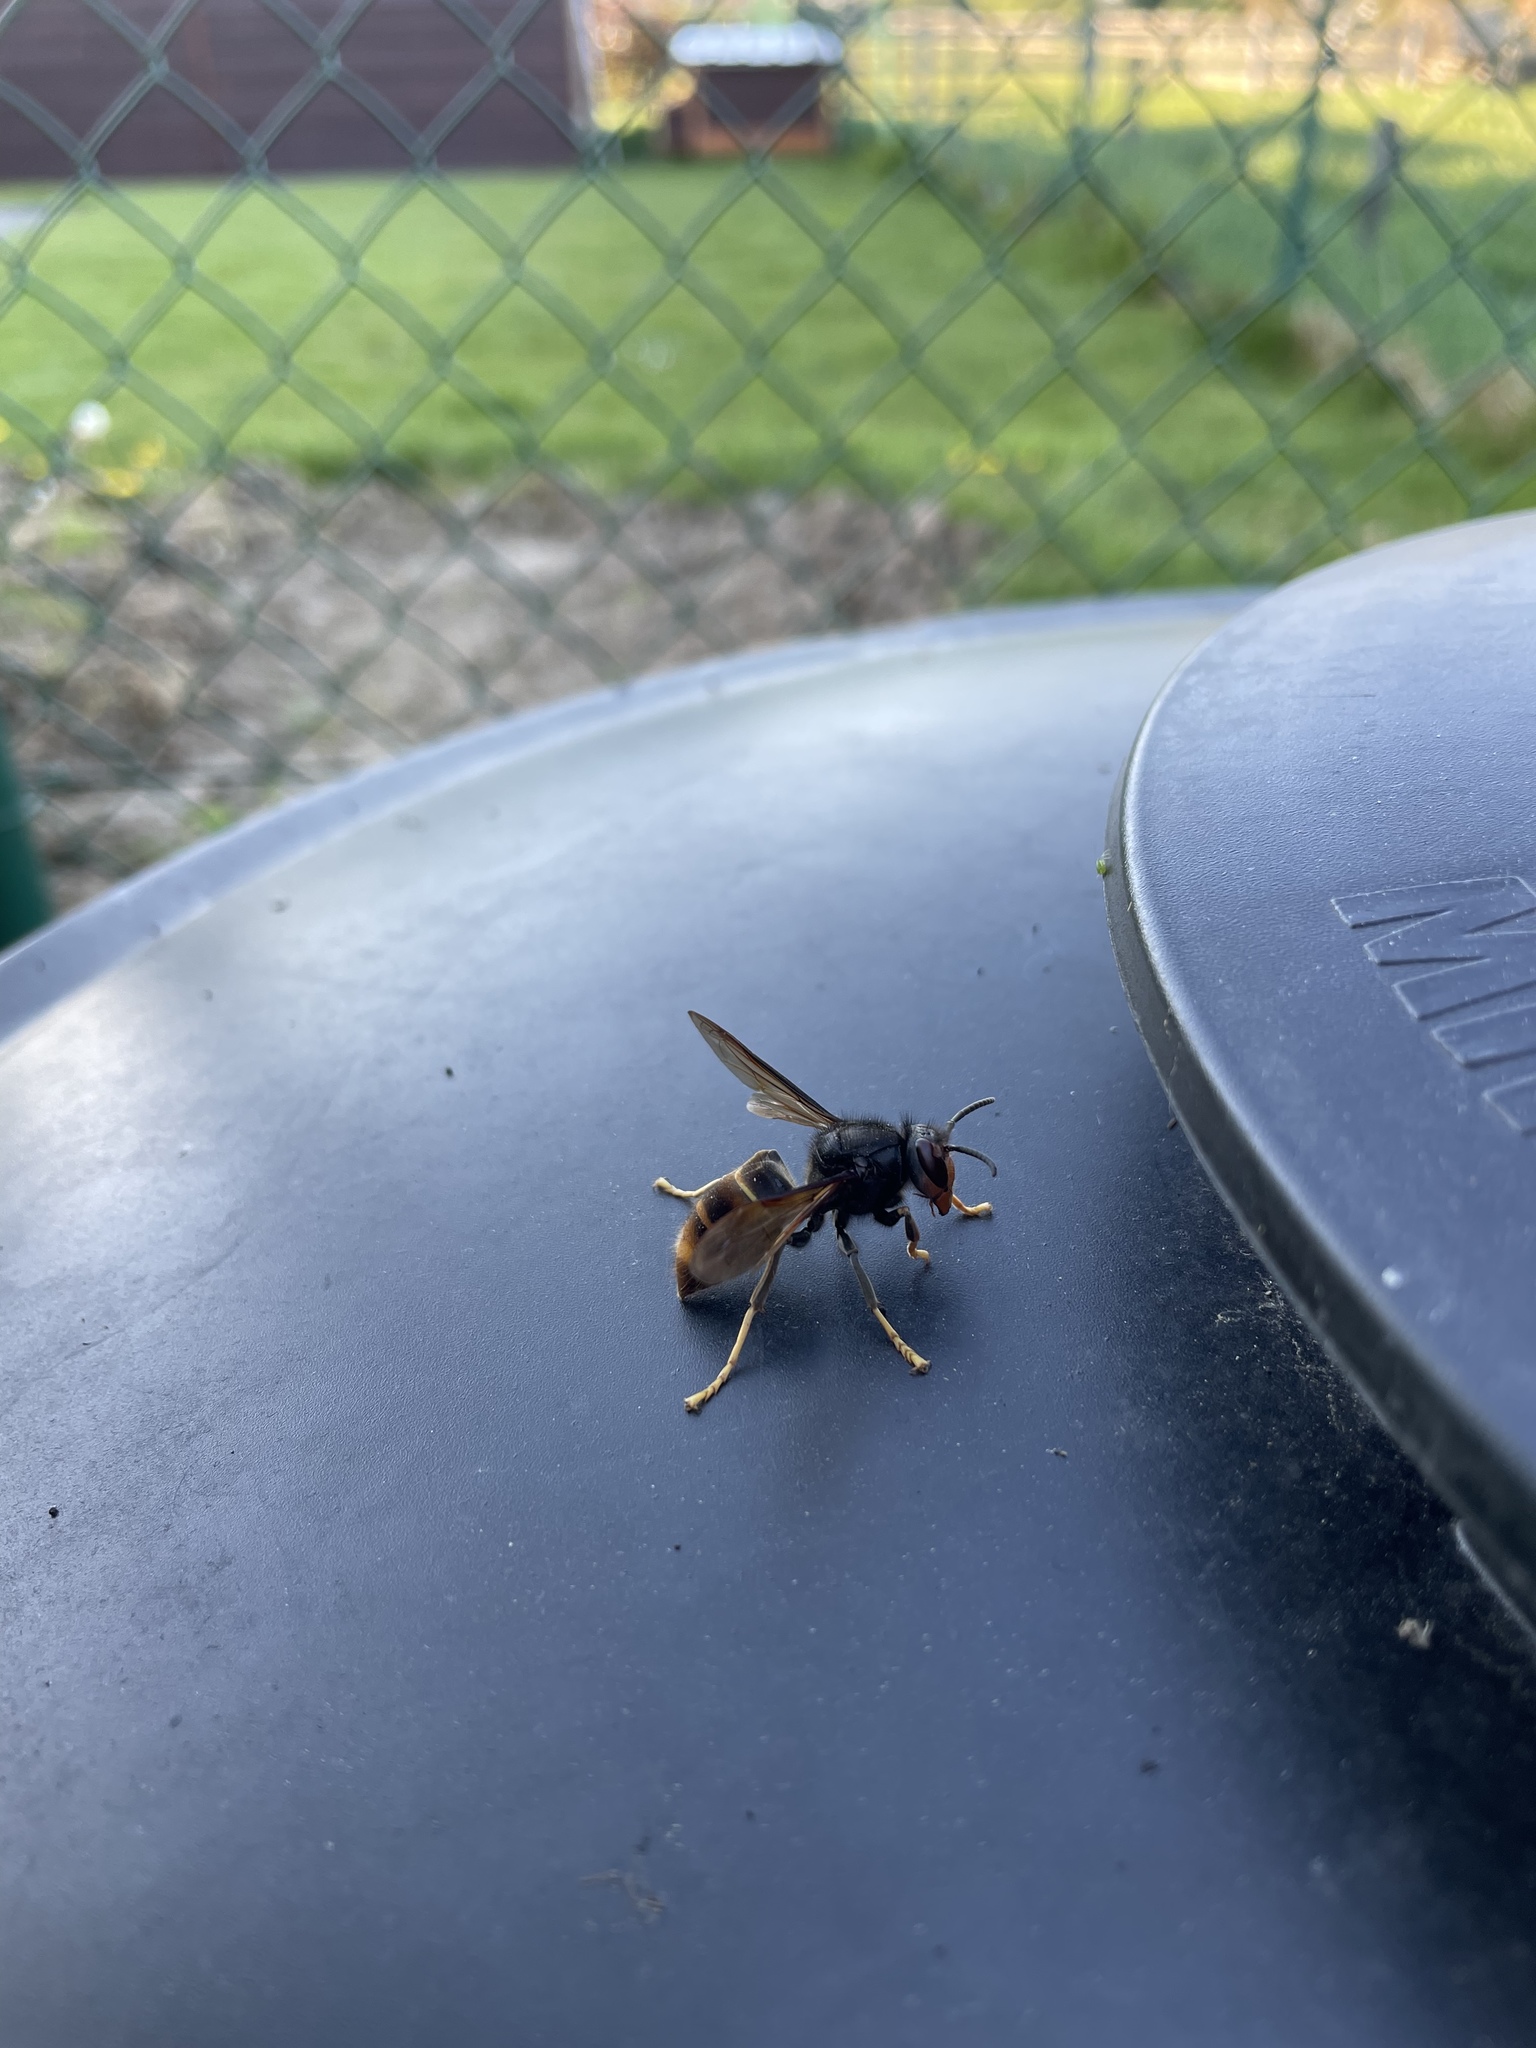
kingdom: Animalia
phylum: Arthropoda
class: Insecta
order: Hymenoptera
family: Vespidae
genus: Vespa
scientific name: Vespa velutina
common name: Asian hornet
